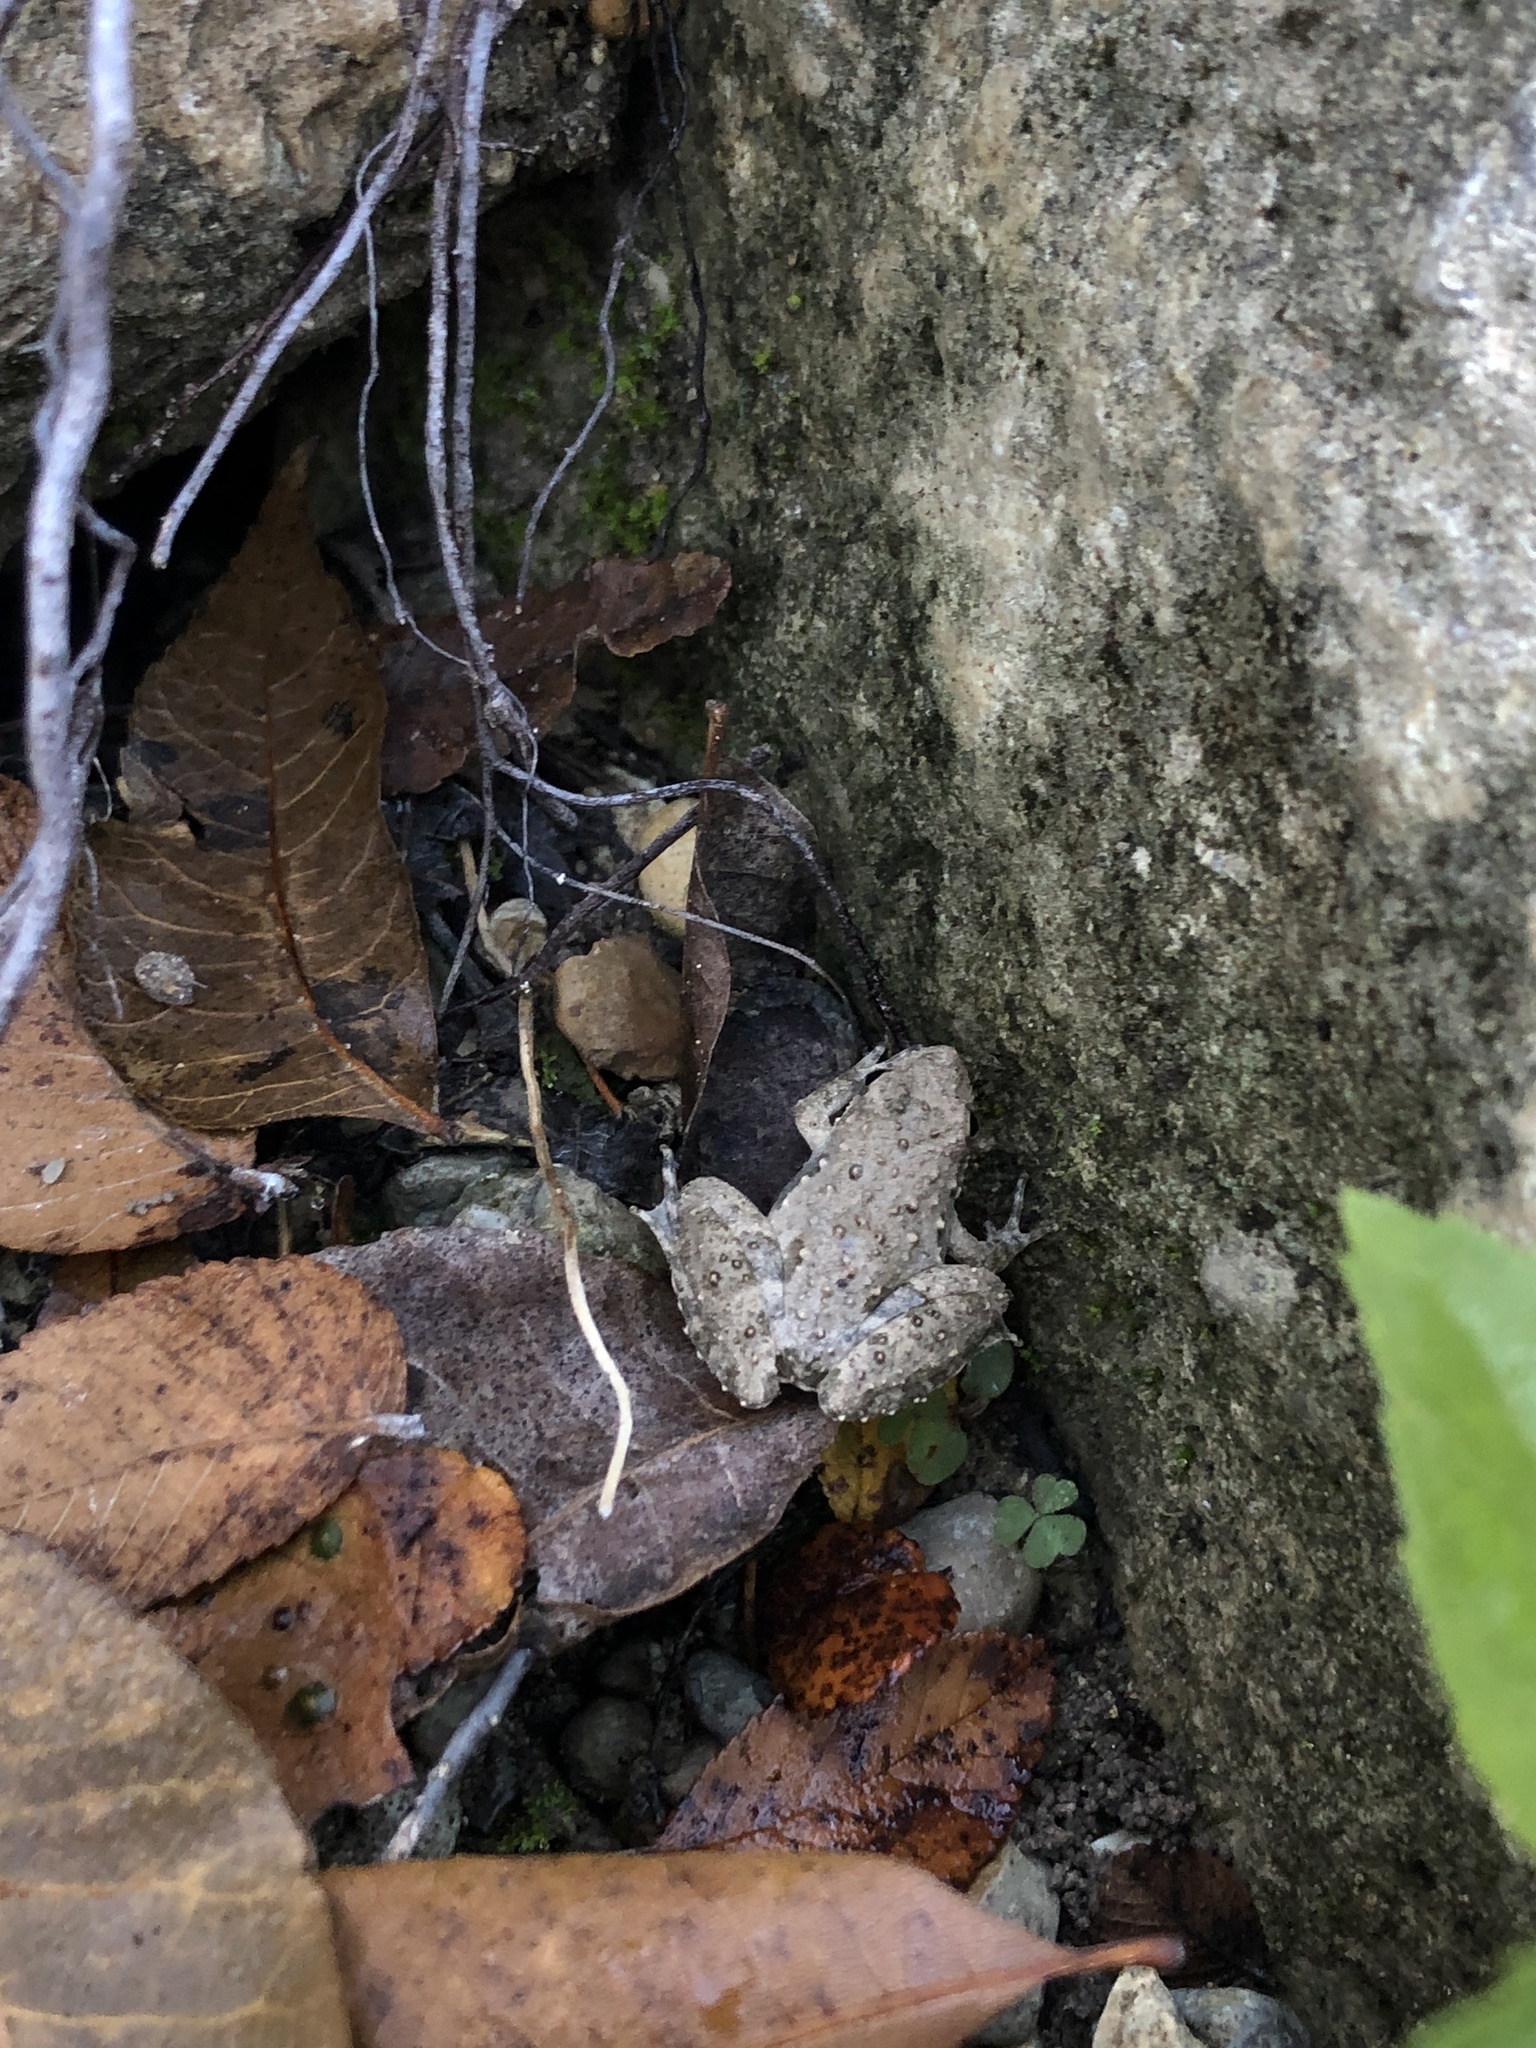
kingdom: Animalia
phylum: Chordata
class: Amphibia
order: Anura
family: Hylidae
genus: Acris
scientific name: Acris blanchardi
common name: Blanchard's cricket frog
